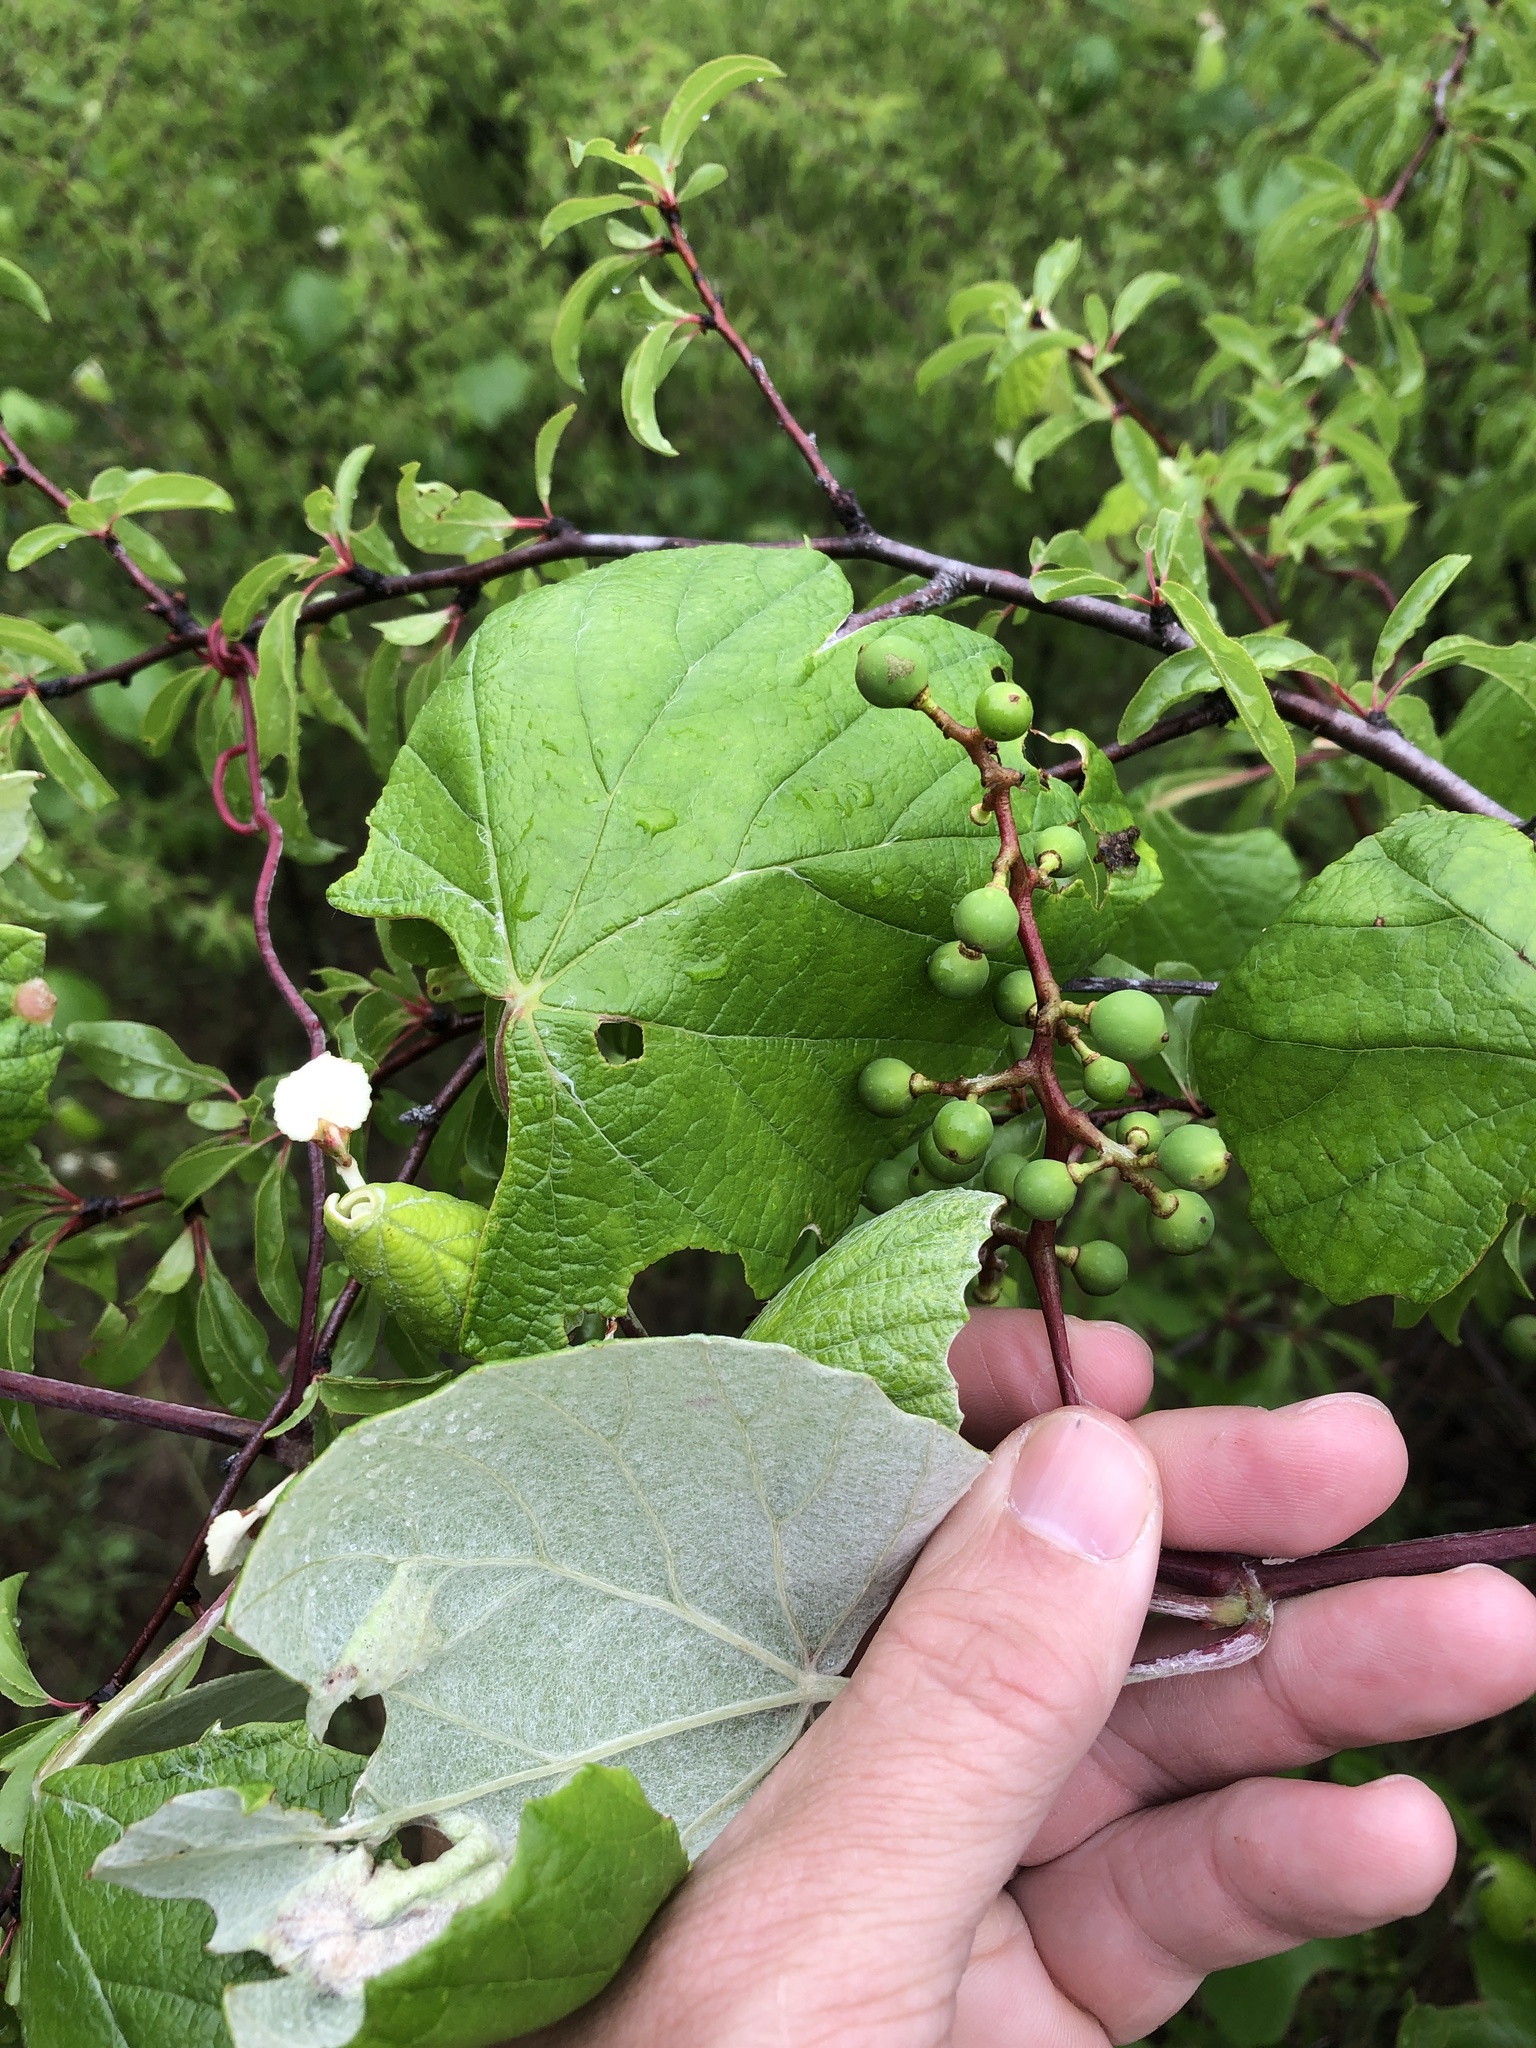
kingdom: Plantae
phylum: Tracheophyta
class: Magnoliopsida
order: Vitales
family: Vitaceae
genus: Vitis
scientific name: Vitis mustangensis
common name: Mustang grape
